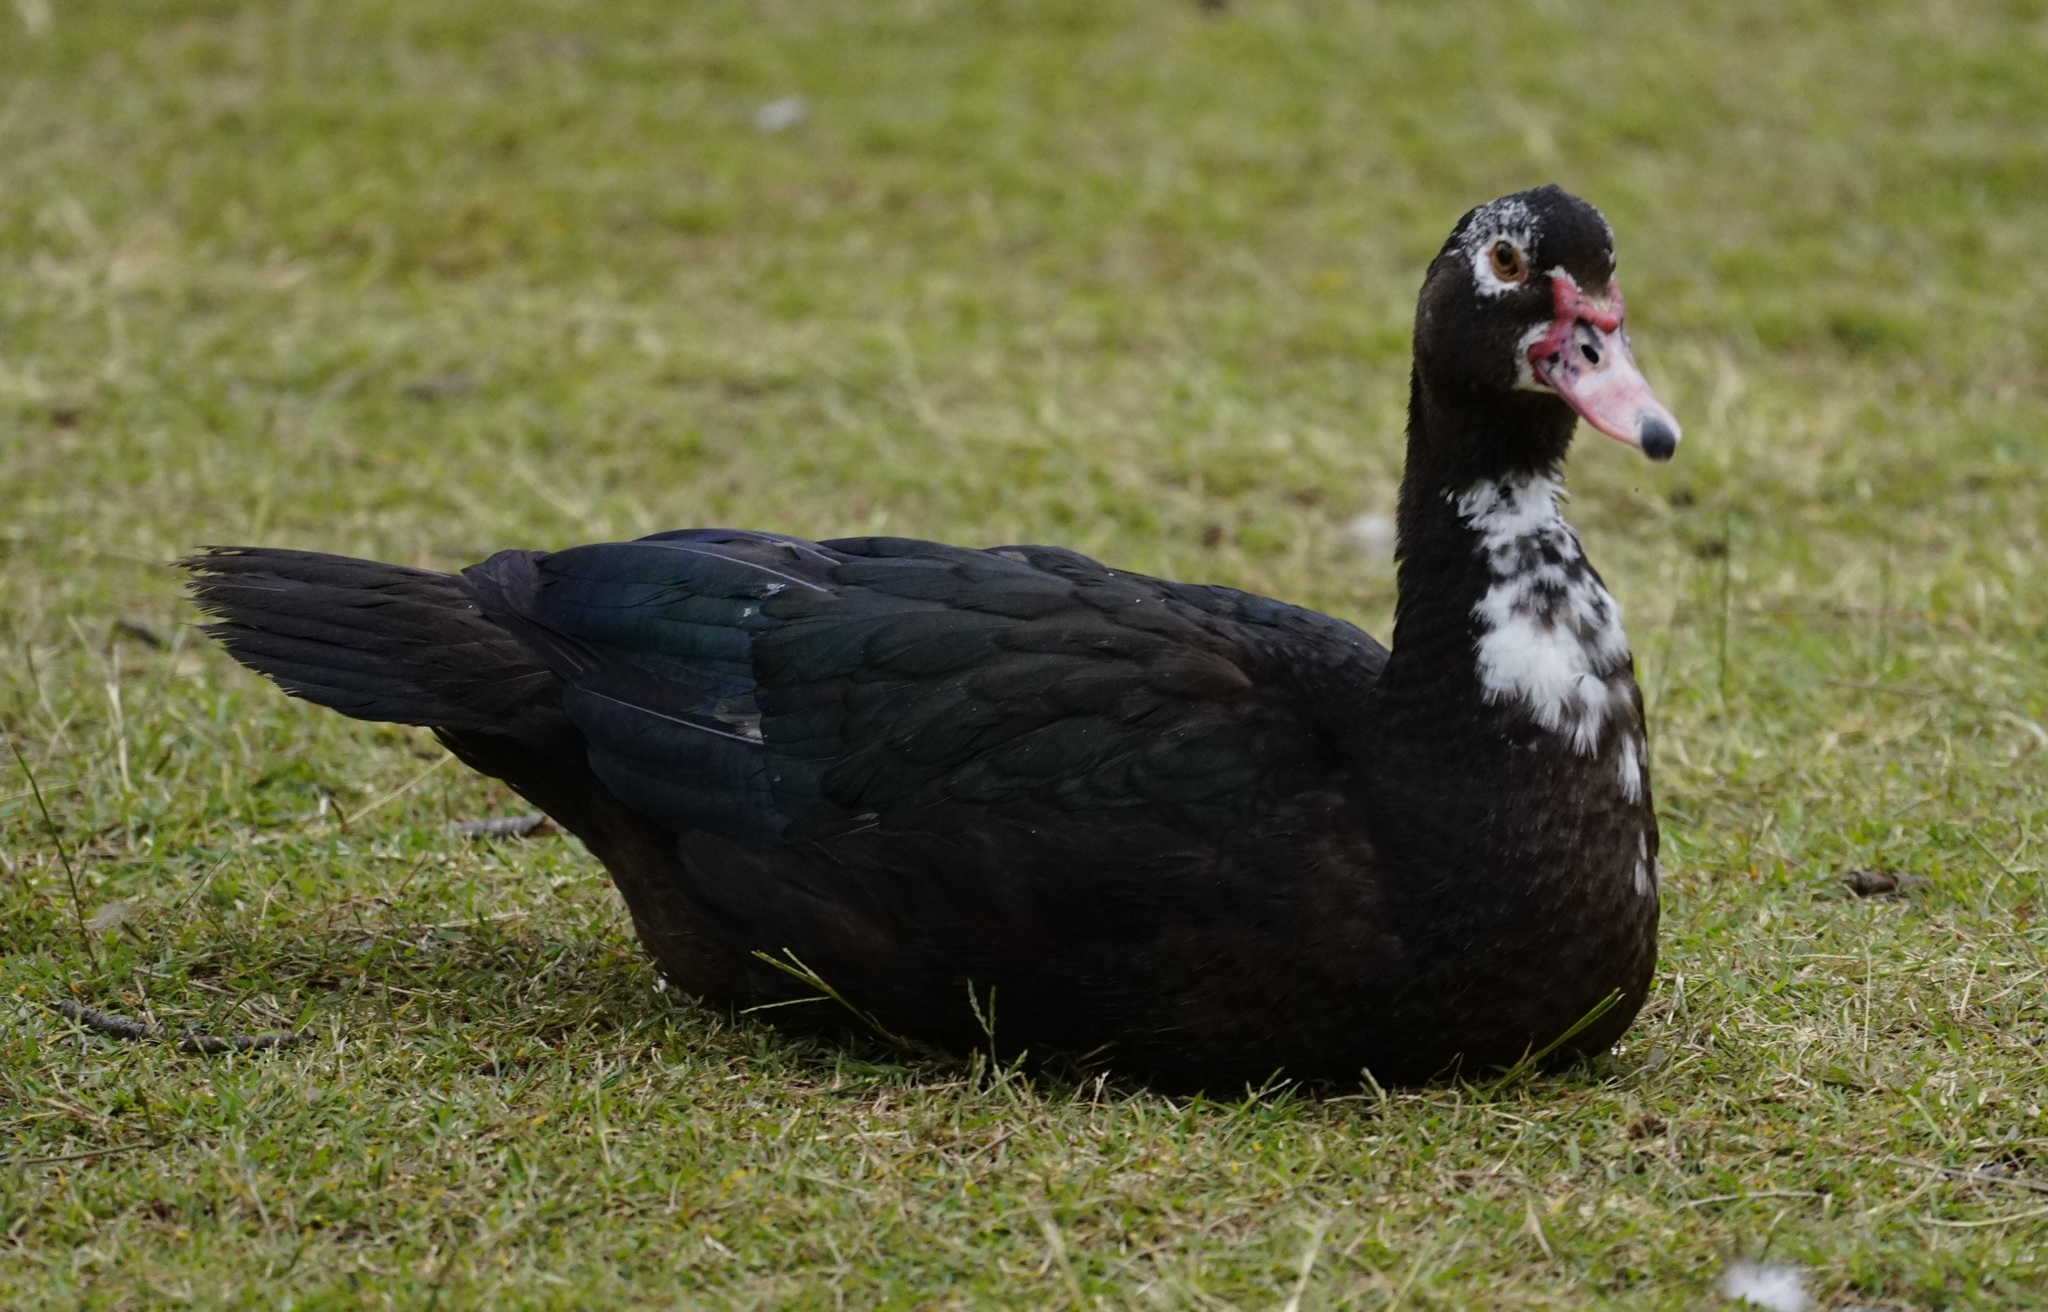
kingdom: Animalia
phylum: Chordata
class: Aves
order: Anseriformes
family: Anatidae
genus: Cairina
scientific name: Cairina moschata
